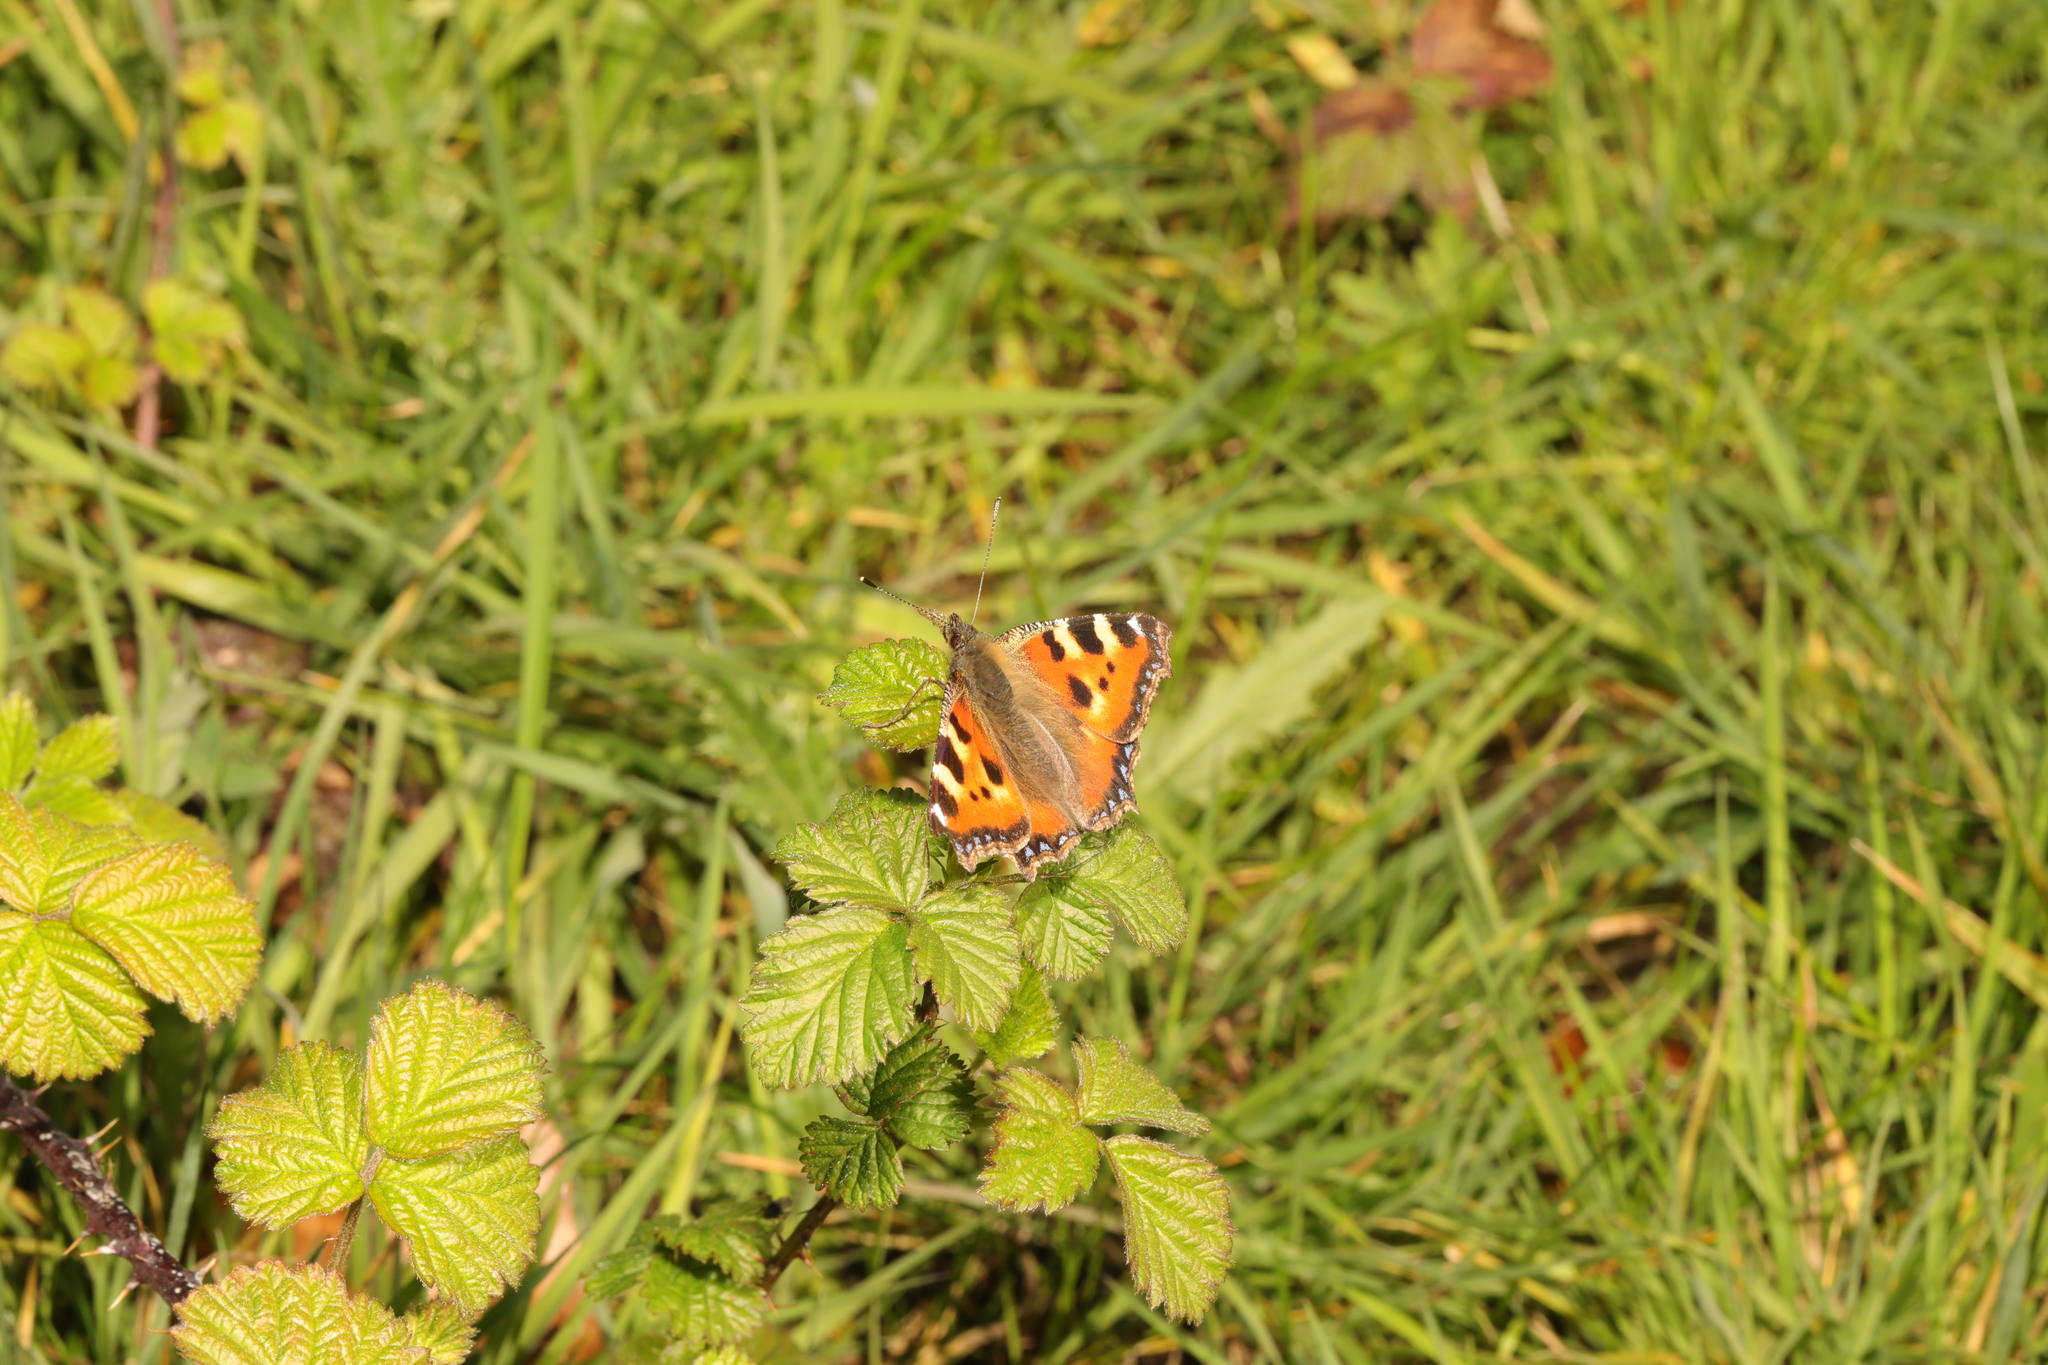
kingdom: Animalia
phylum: Arthropoda
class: Insecta
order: Lepidoptera
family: Nymphalidae
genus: Aglais
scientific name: Aglais urticae
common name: Small tortoiseshell
